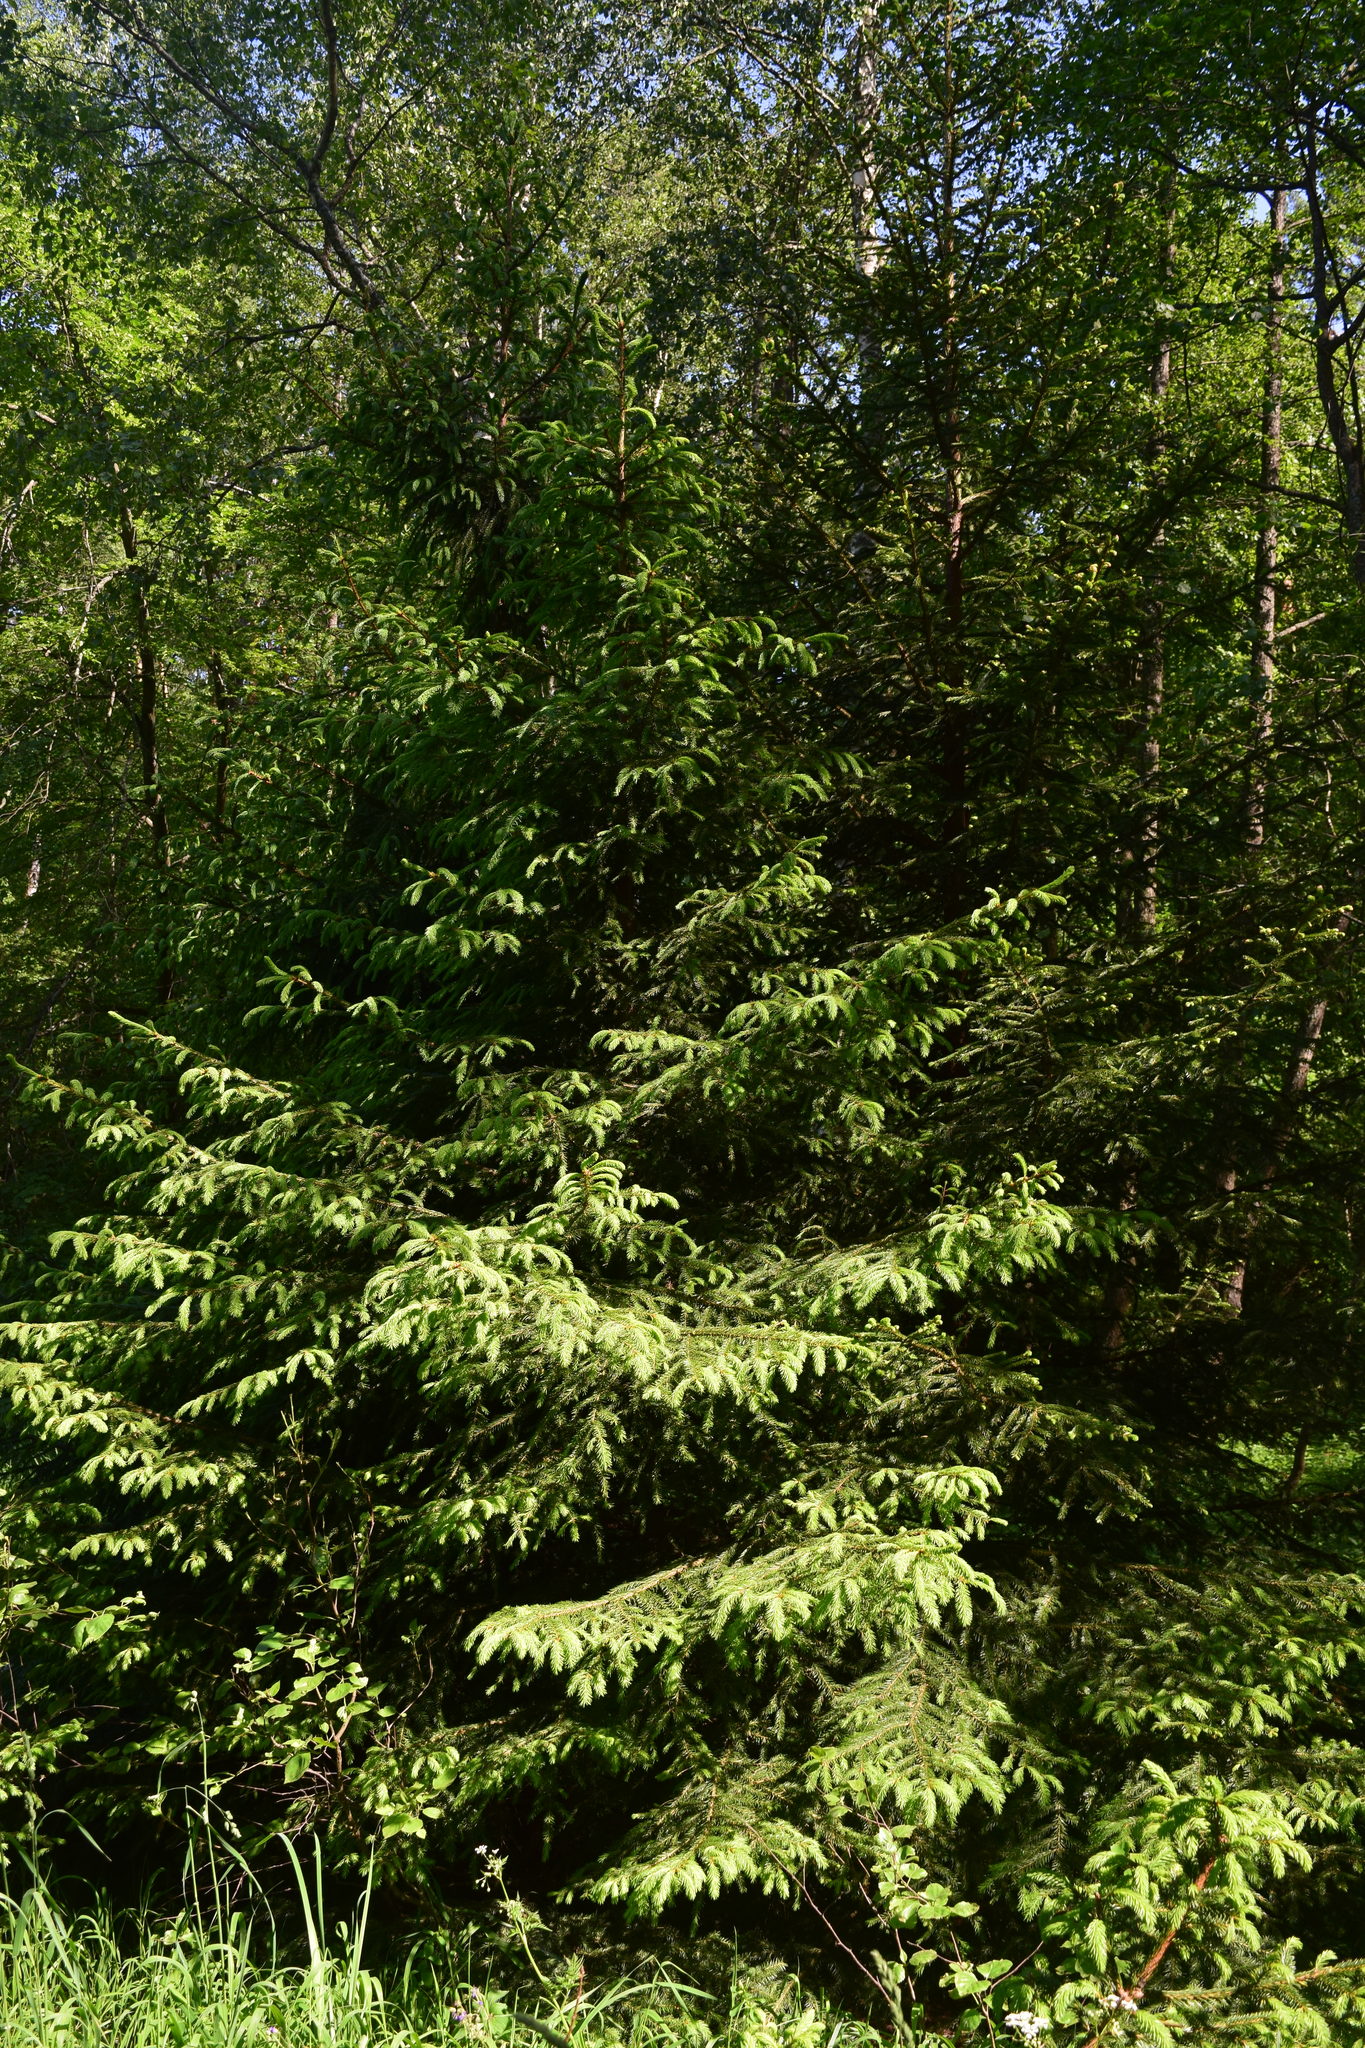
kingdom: Plantae
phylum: Tracheophyta
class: Pinopsida
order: Pinales
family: Pinaceae
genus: Picea
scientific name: Picea abies
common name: Norway spruce
